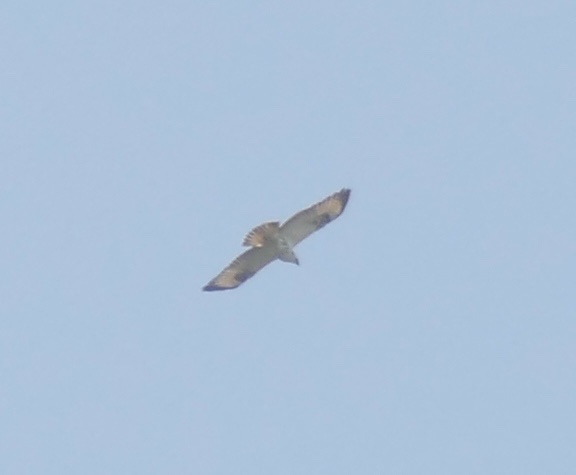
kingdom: Animalia
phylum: Chordata
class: Aves
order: Accipitriformes
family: Accipitridae
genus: Buteo
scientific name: Buteo buteo
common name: Common buzzard
